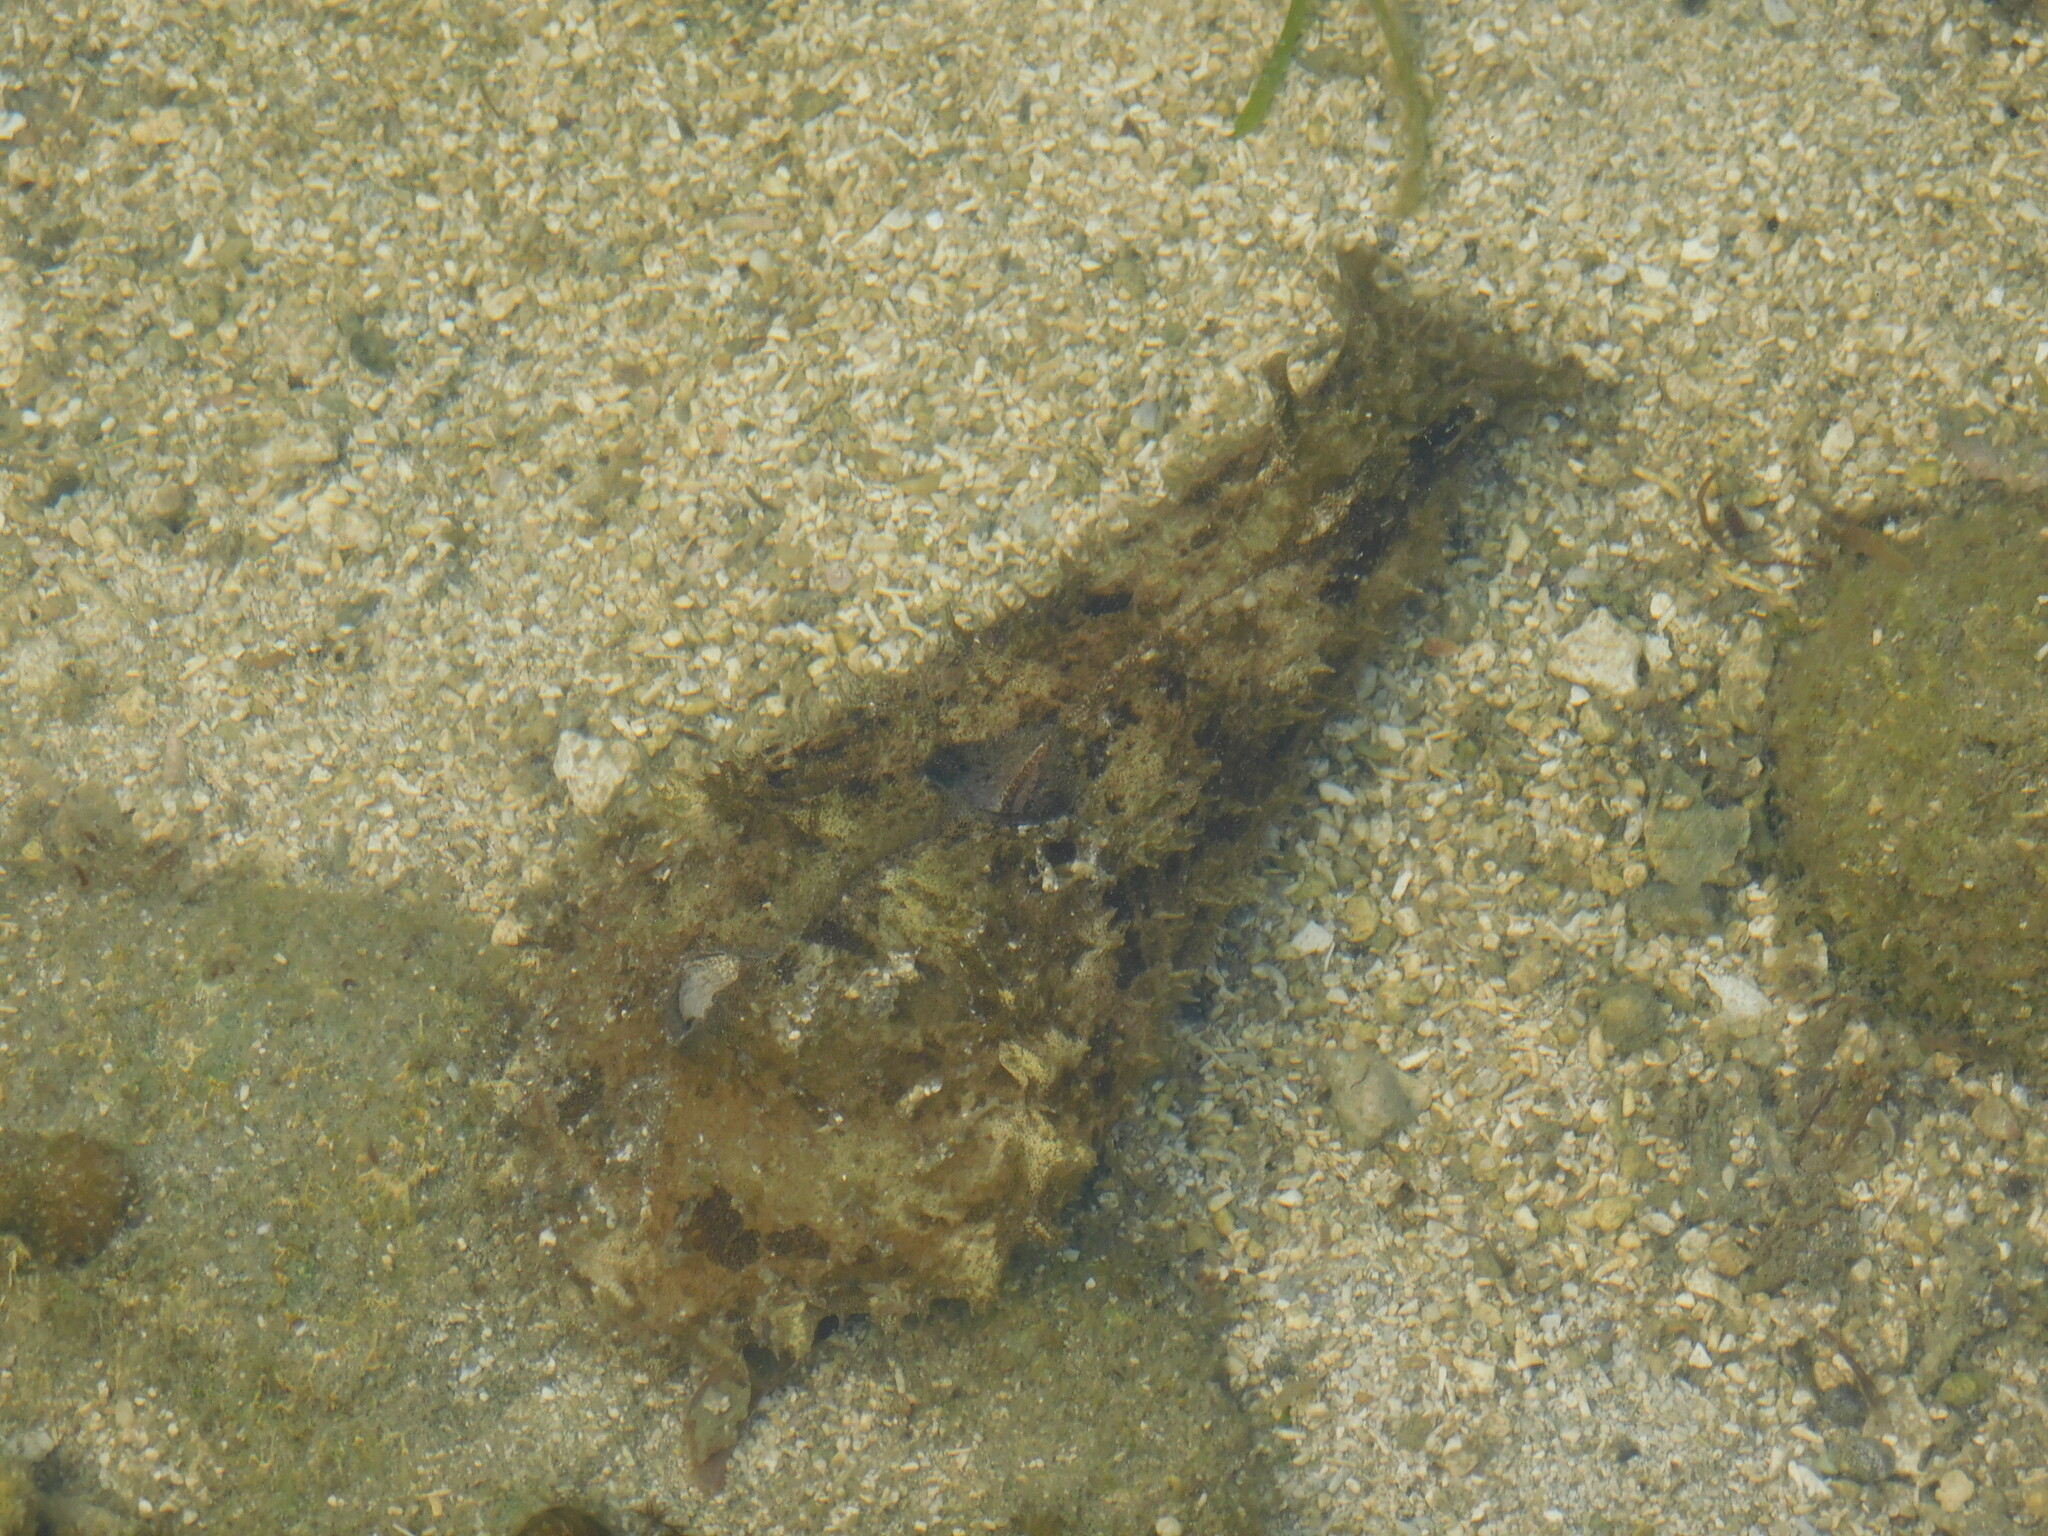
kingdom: Animalia
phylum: Mollusca
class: Gastropoda
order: Aplysiida
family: Aplysiidae
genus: Dolabella
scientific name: Dolabella auricularia
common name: Blunt-end seahare
